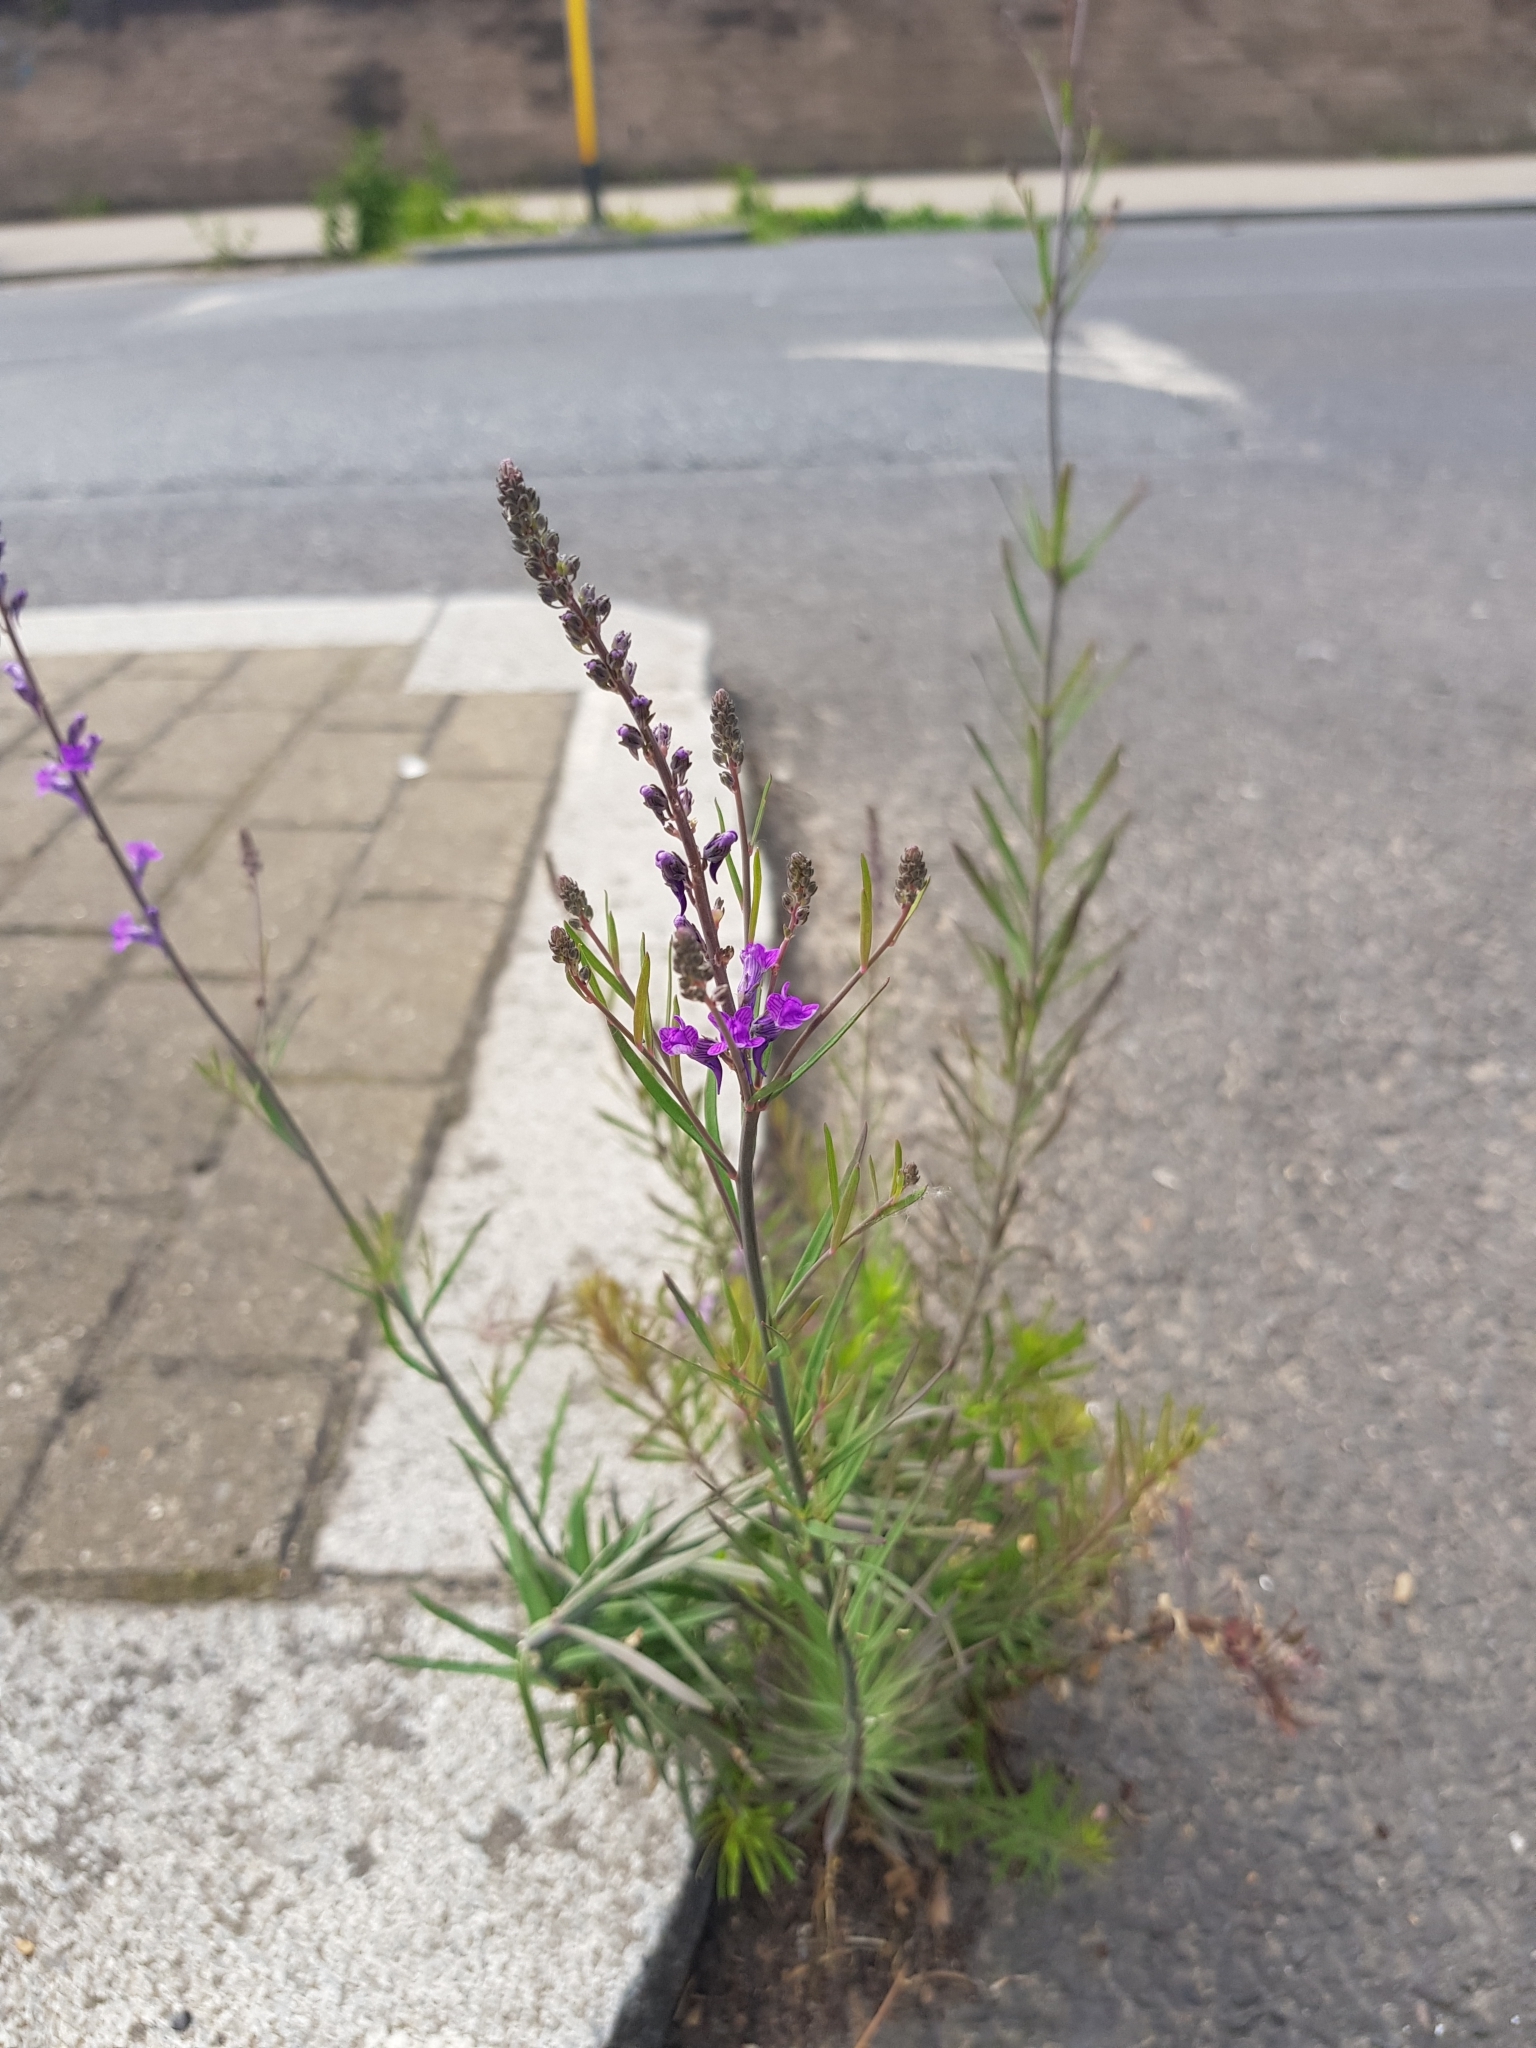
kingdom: Plantae
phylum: Tracheophyta
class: Magnoliopsida
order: Lamiales
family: Plantaginaceae
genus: Linaria
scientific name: Linaria purpurea
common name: Purple toadflax
